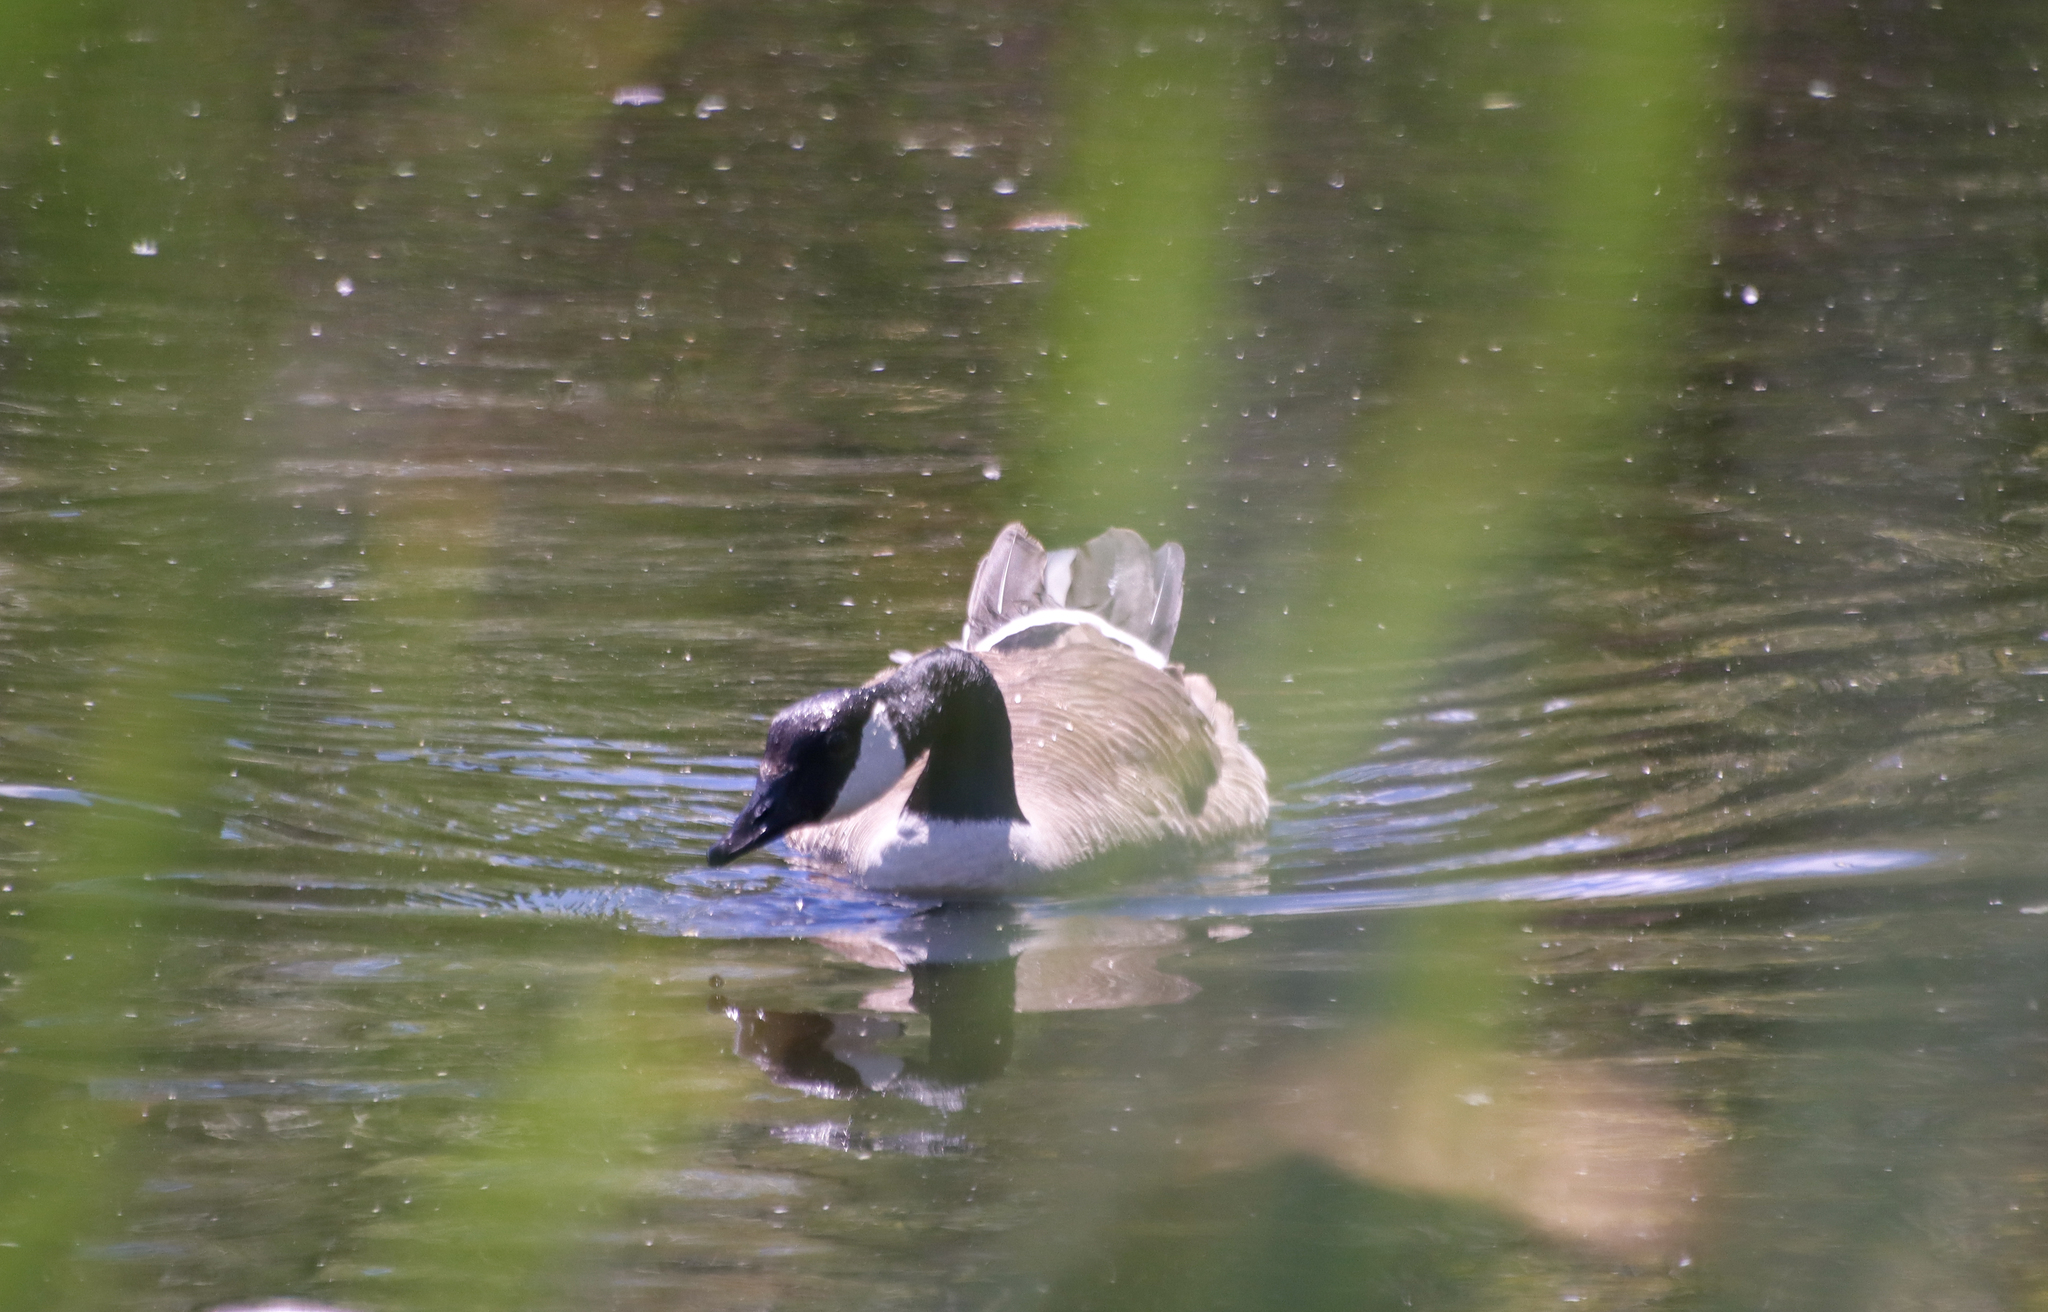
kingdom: Animalia
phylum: Chordata
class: Aves
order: Anseriformes
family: Anatidae
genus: Branta
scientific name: Branta canadensis
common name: Canada goose
